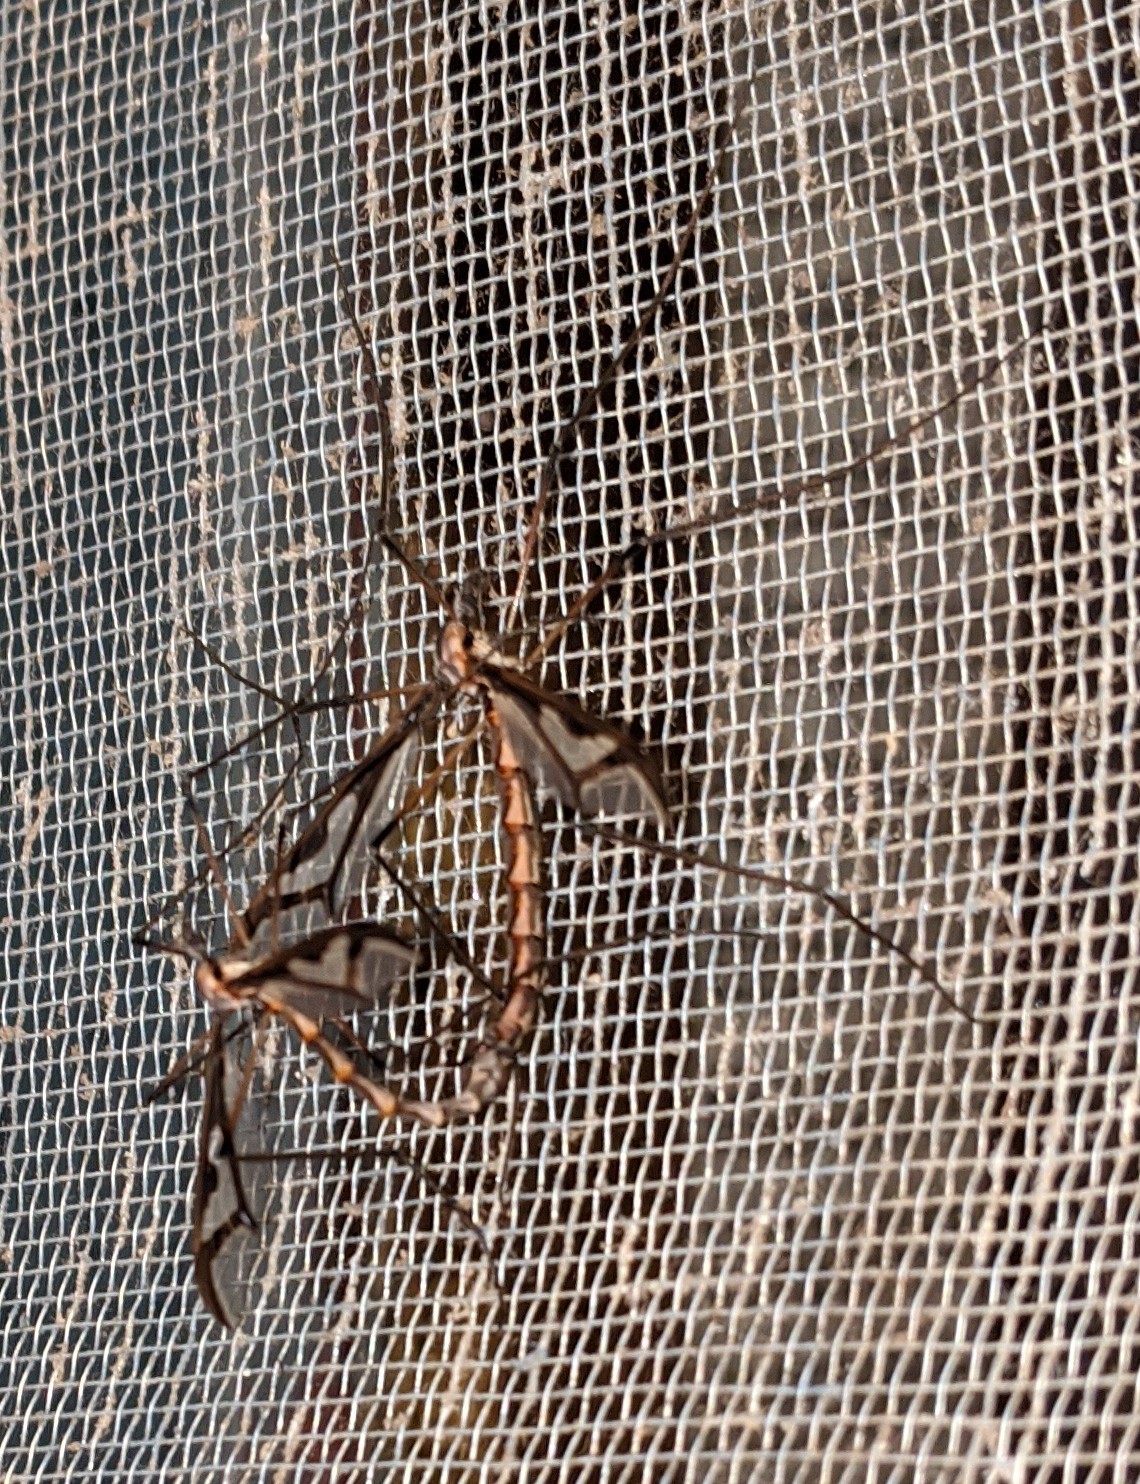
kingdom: Animalia
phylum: Arthropoda
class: Insecta
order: Diptera
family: Pediciidae
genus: Pedicia
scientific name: Pedicia albivitta
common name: Giant eastern crane fly
